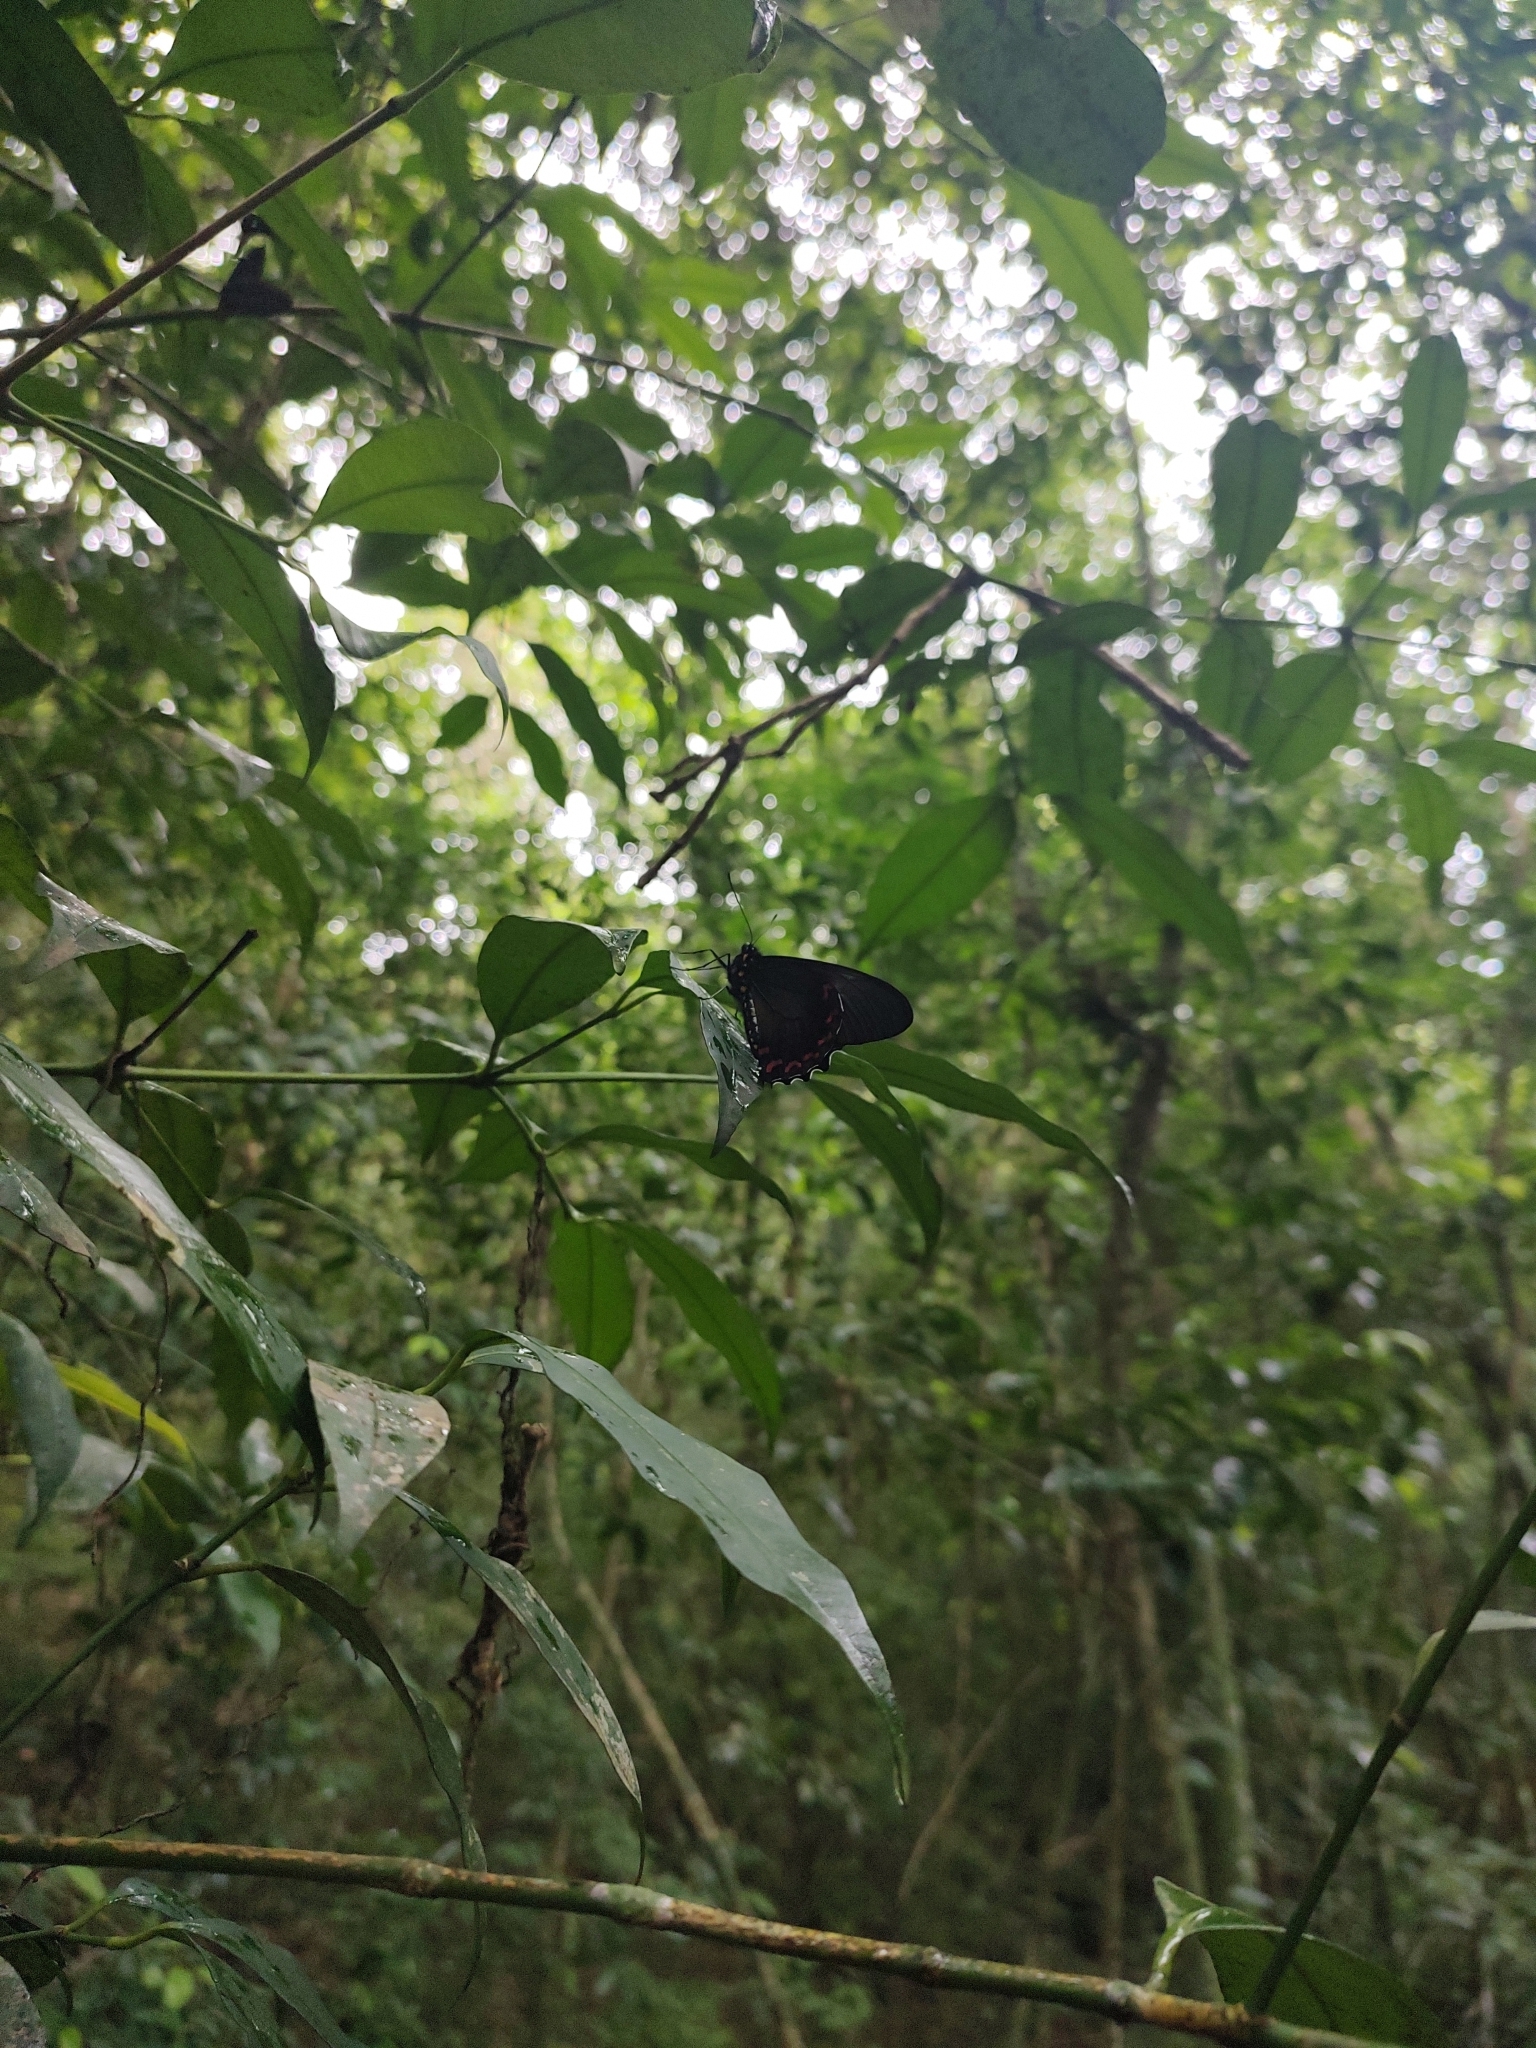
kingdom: Animalia
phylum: Arthropoda
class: Insecta
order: Lepidoptera
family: Papilionidae
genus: Battus
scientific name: Battus polystictus
